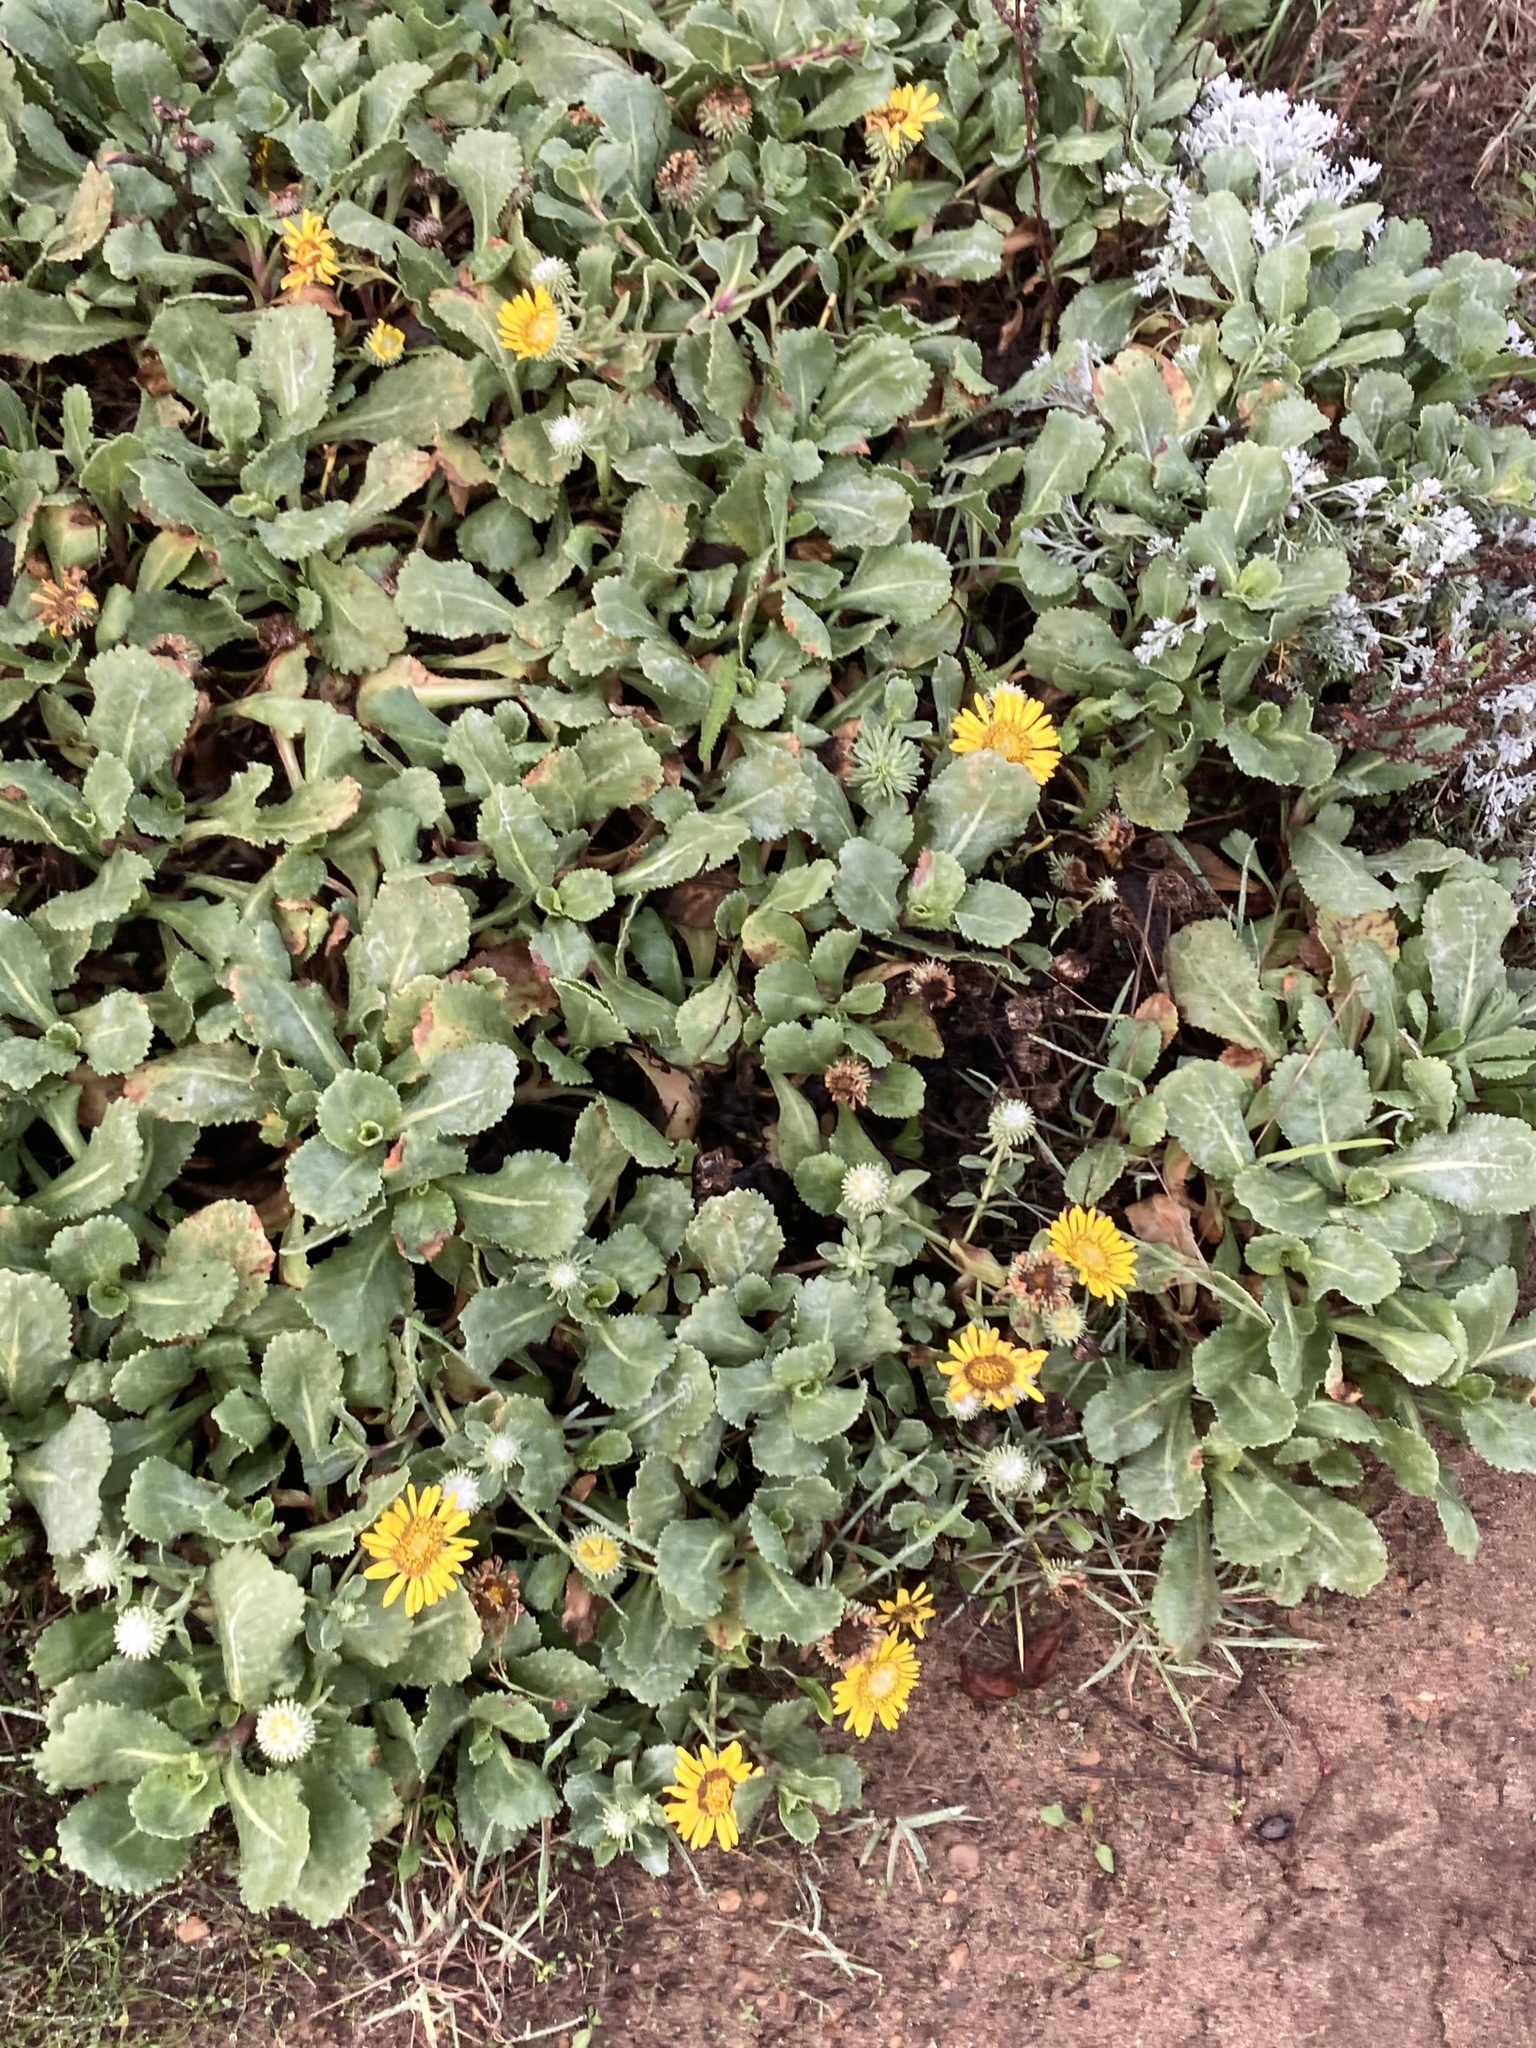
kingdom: Plantae
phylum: Tracheophyta
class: Magnoliopsida
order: Asterales
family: Asteraceae
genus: Grindelia
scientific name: Grindelia hirsutula
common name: Hairy gumweed
